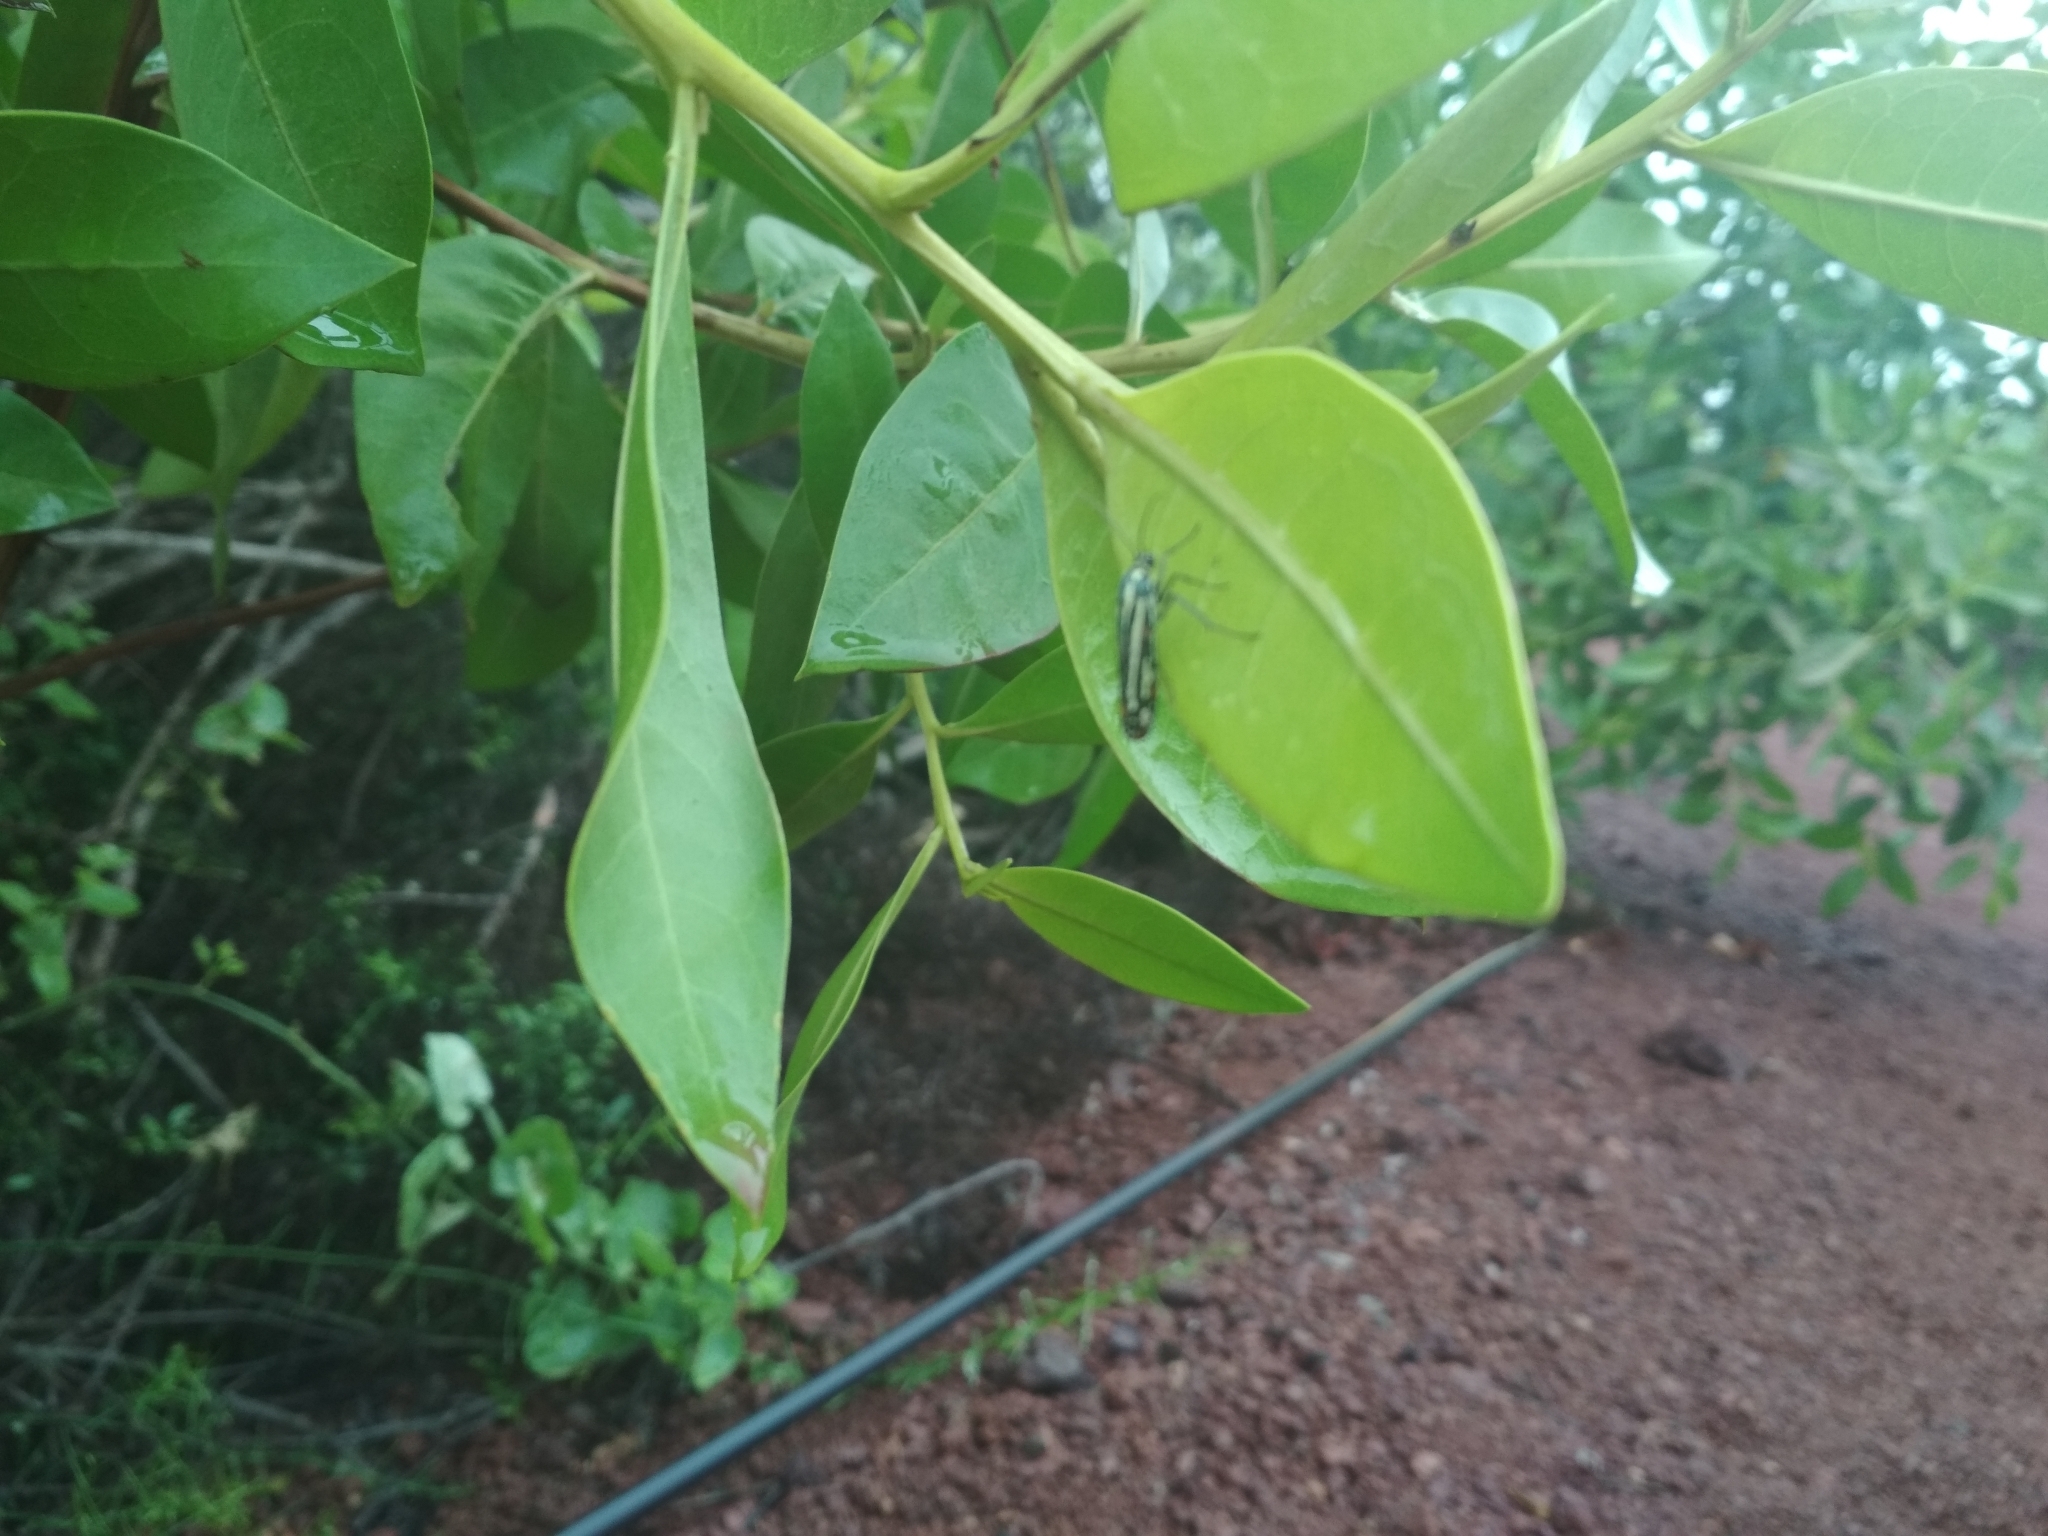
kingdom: Animalia
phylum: Arthropoda
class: Insecta
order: Lepidoptera
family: Attevidae
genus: Atteva
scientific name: Atteva hysginiella
